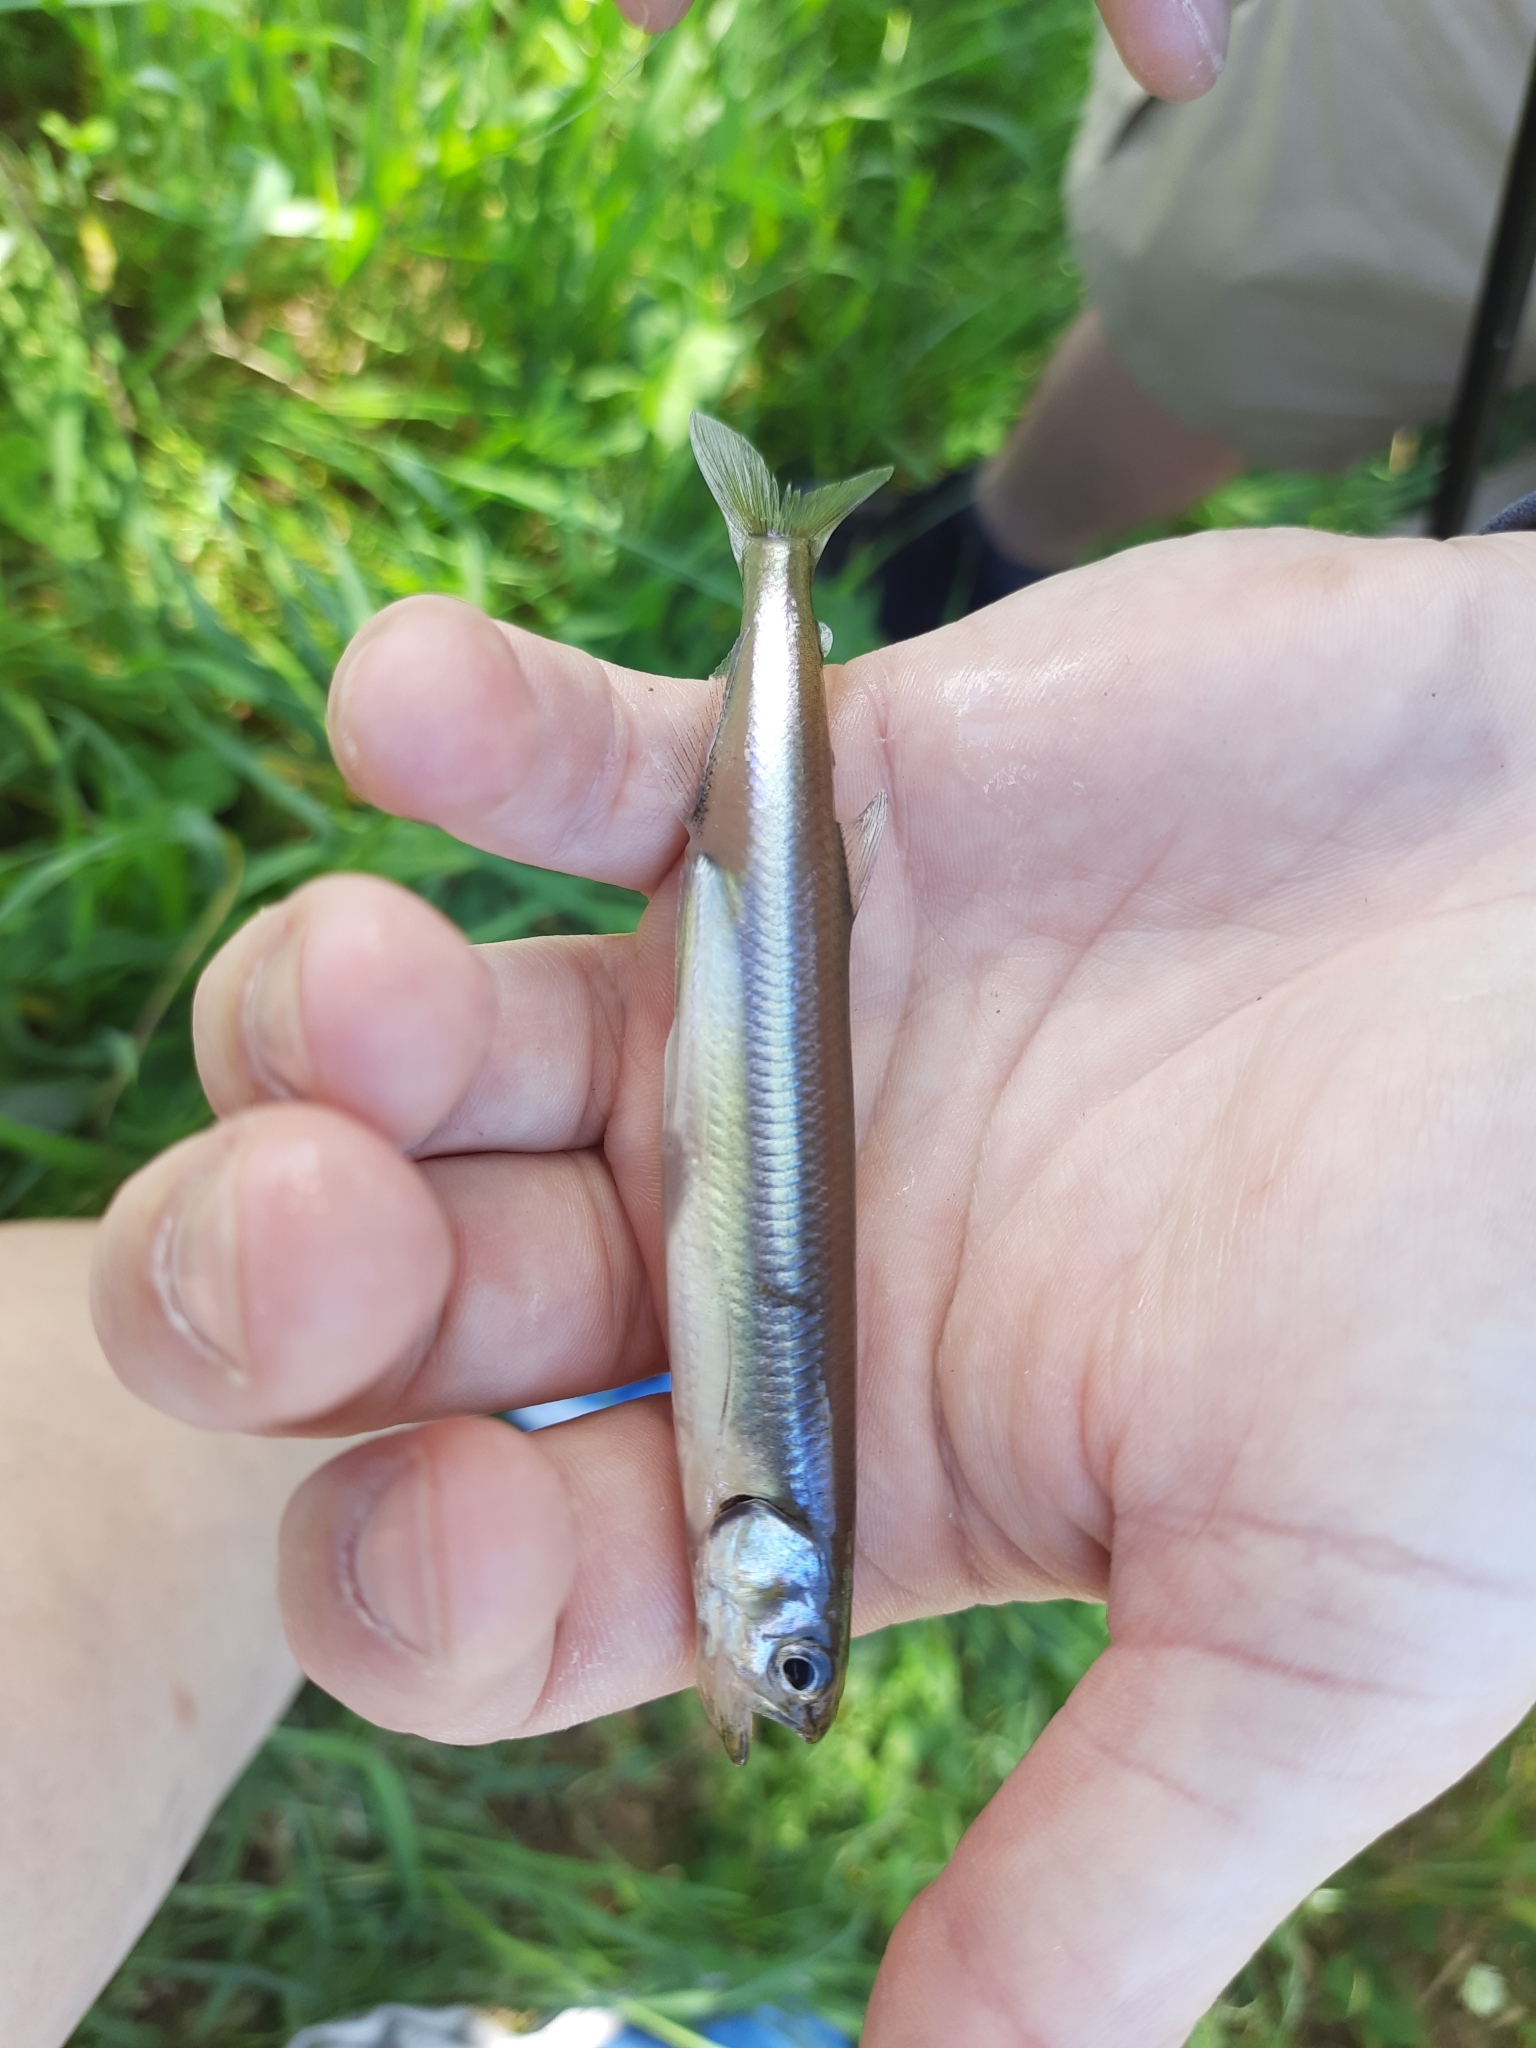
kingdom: Animalia
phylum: Chordata
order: Osmeriformes
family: Retropinnidae
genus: Retropinna
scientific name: Retropinna retropinna
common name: Common smelt
